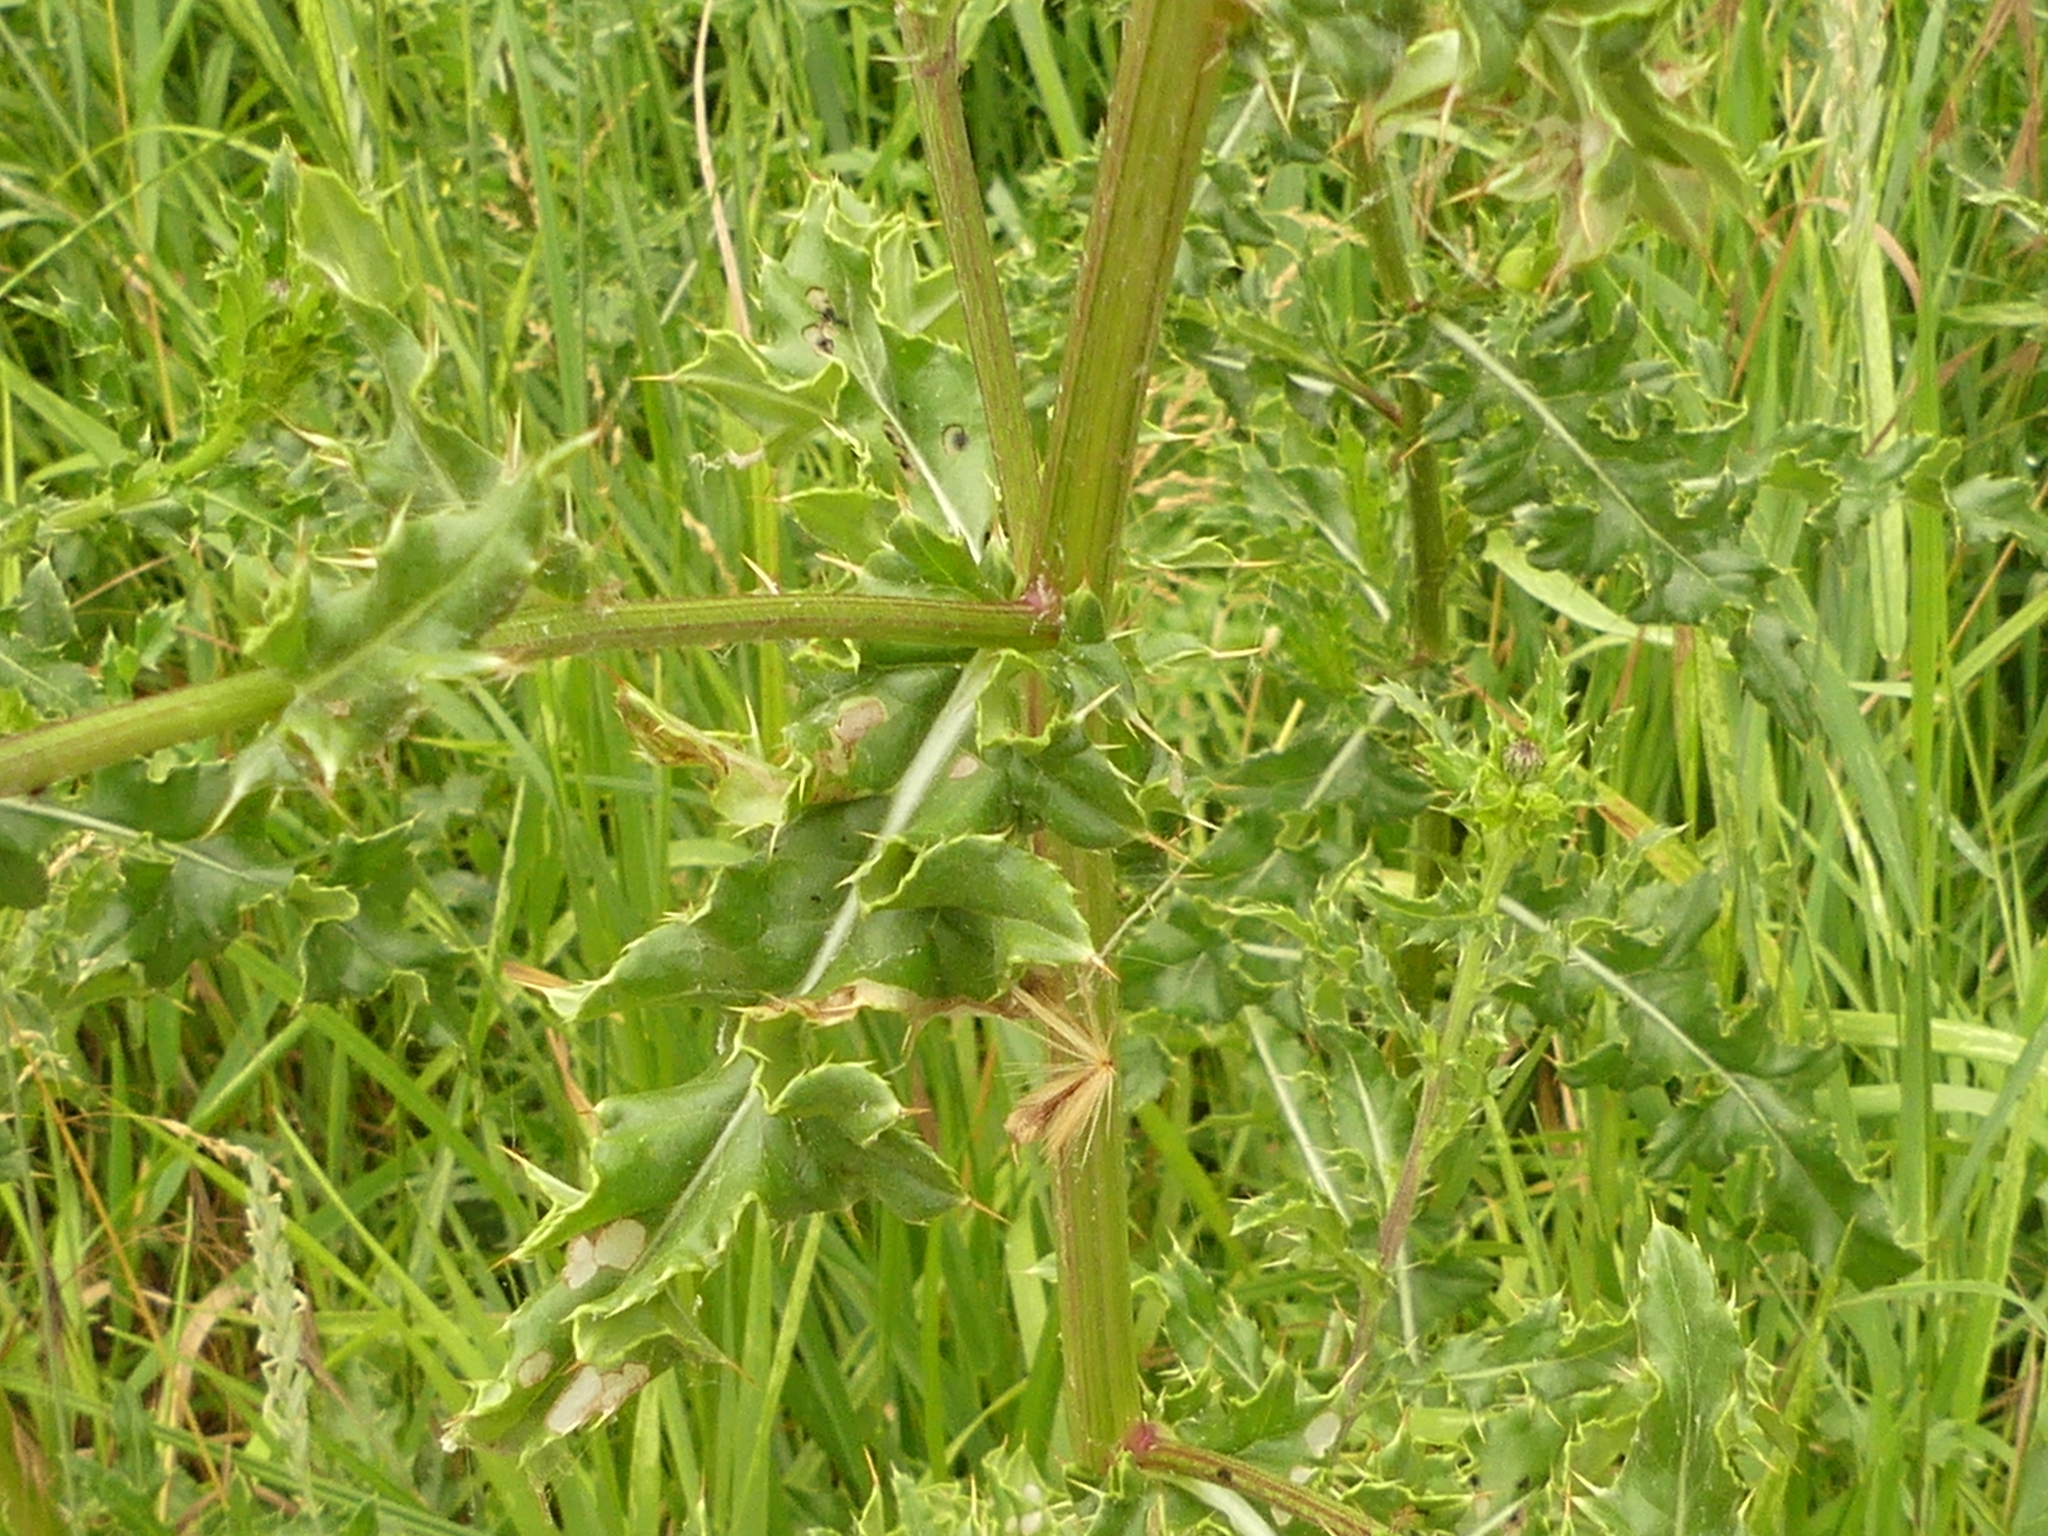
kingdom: Plantae
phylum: Tracheophyta
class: Magnoliopsida
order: Asterales
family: Asteraceae
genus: Cirsium
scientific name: Cirsium arvense
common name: Creeping thistle
